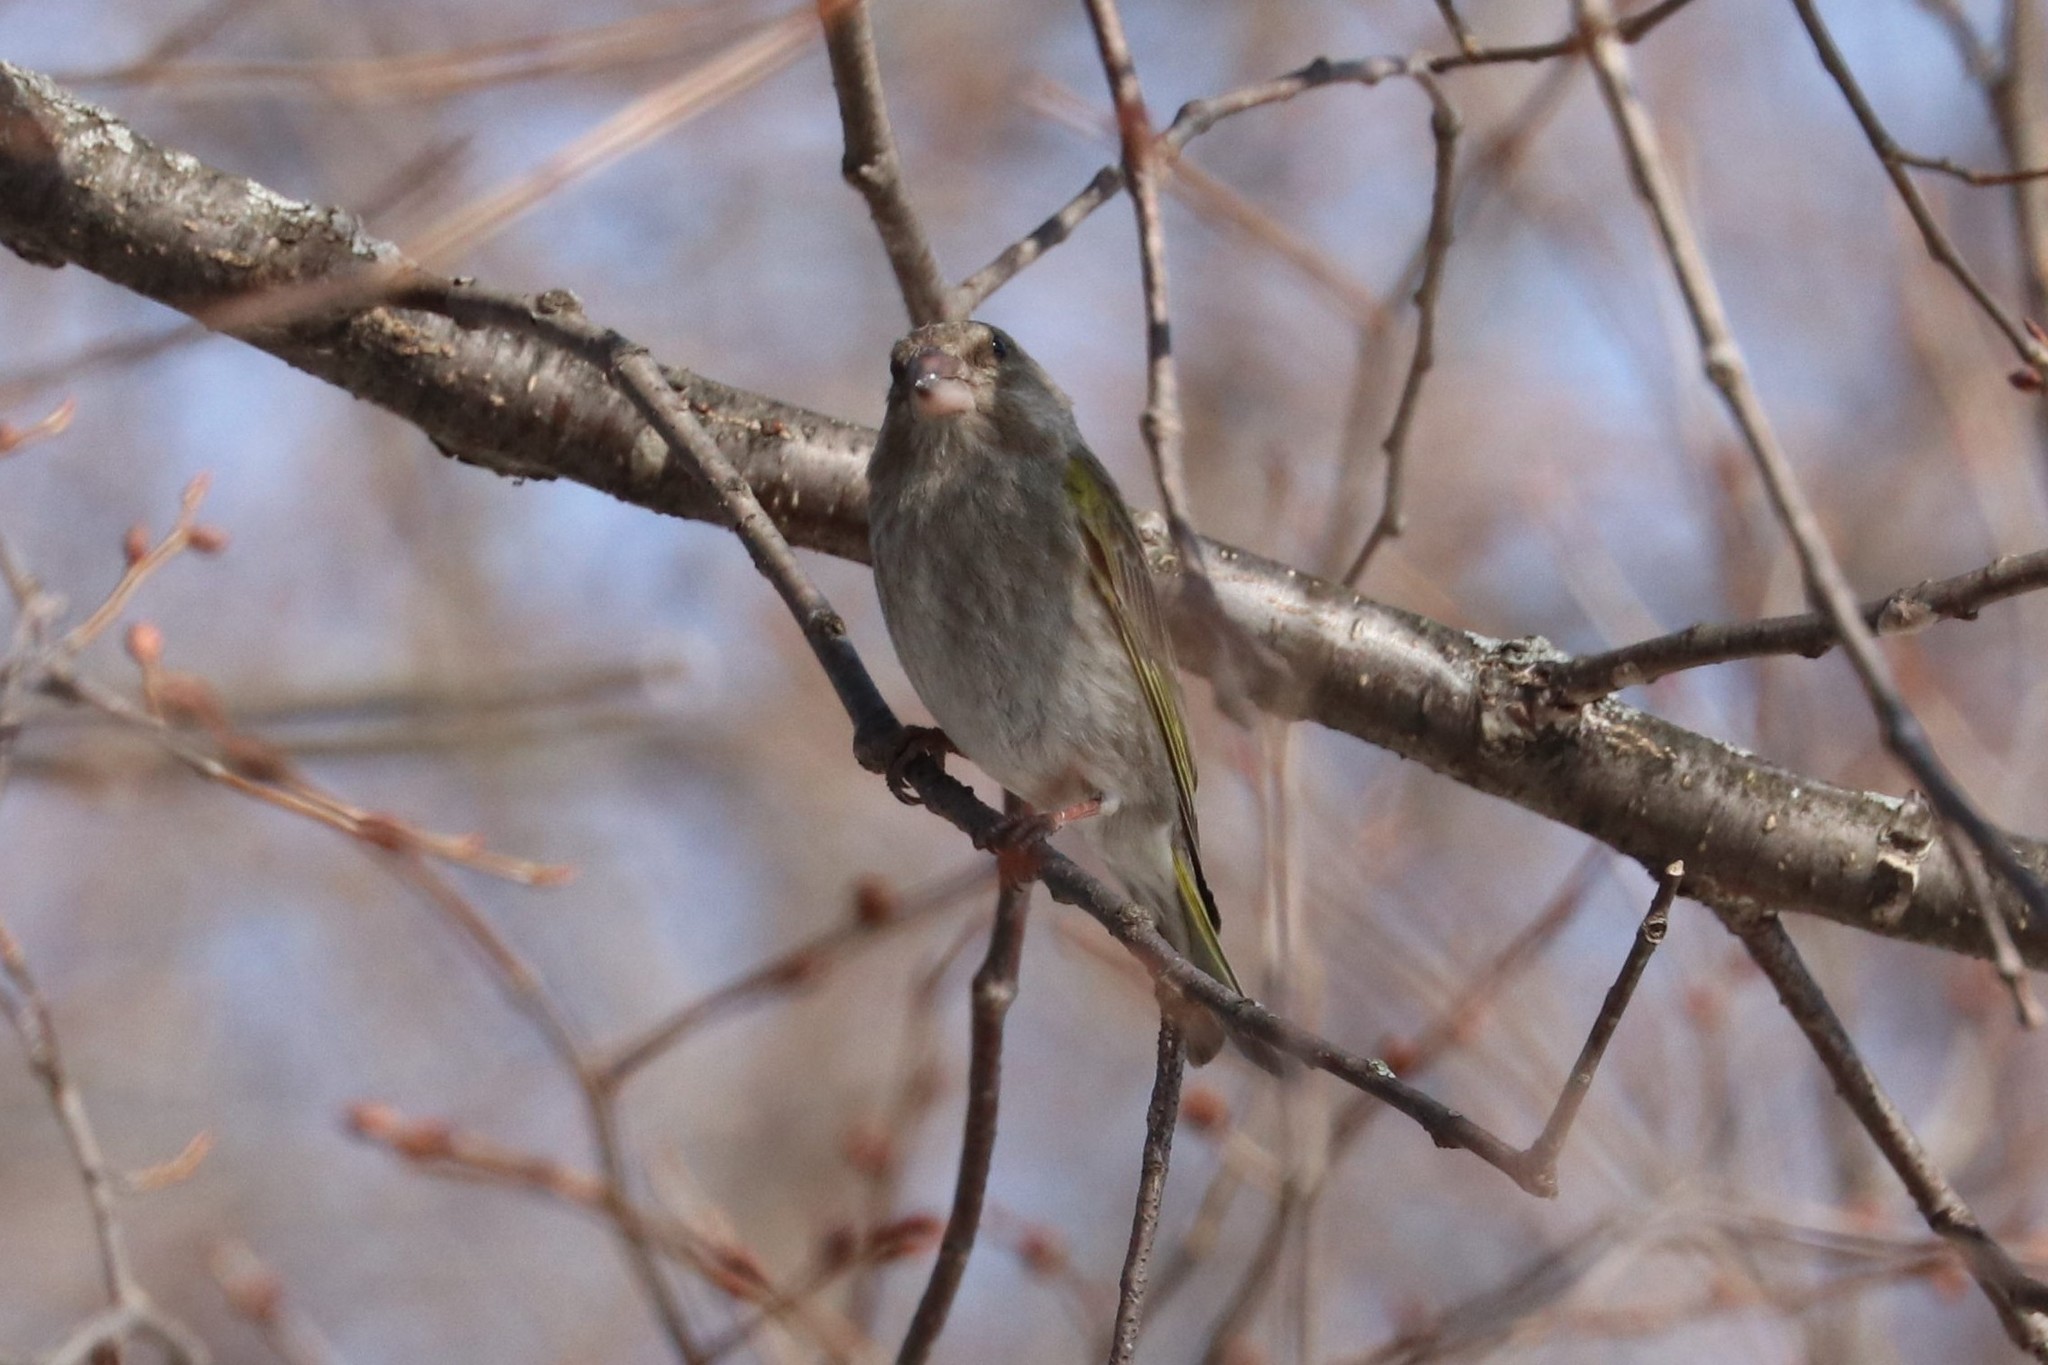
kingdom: Plantae
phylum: Tracheophyta
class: Liliopsida
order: Poales
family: Poaceae
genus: Chloris
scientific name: Chloris chloris
